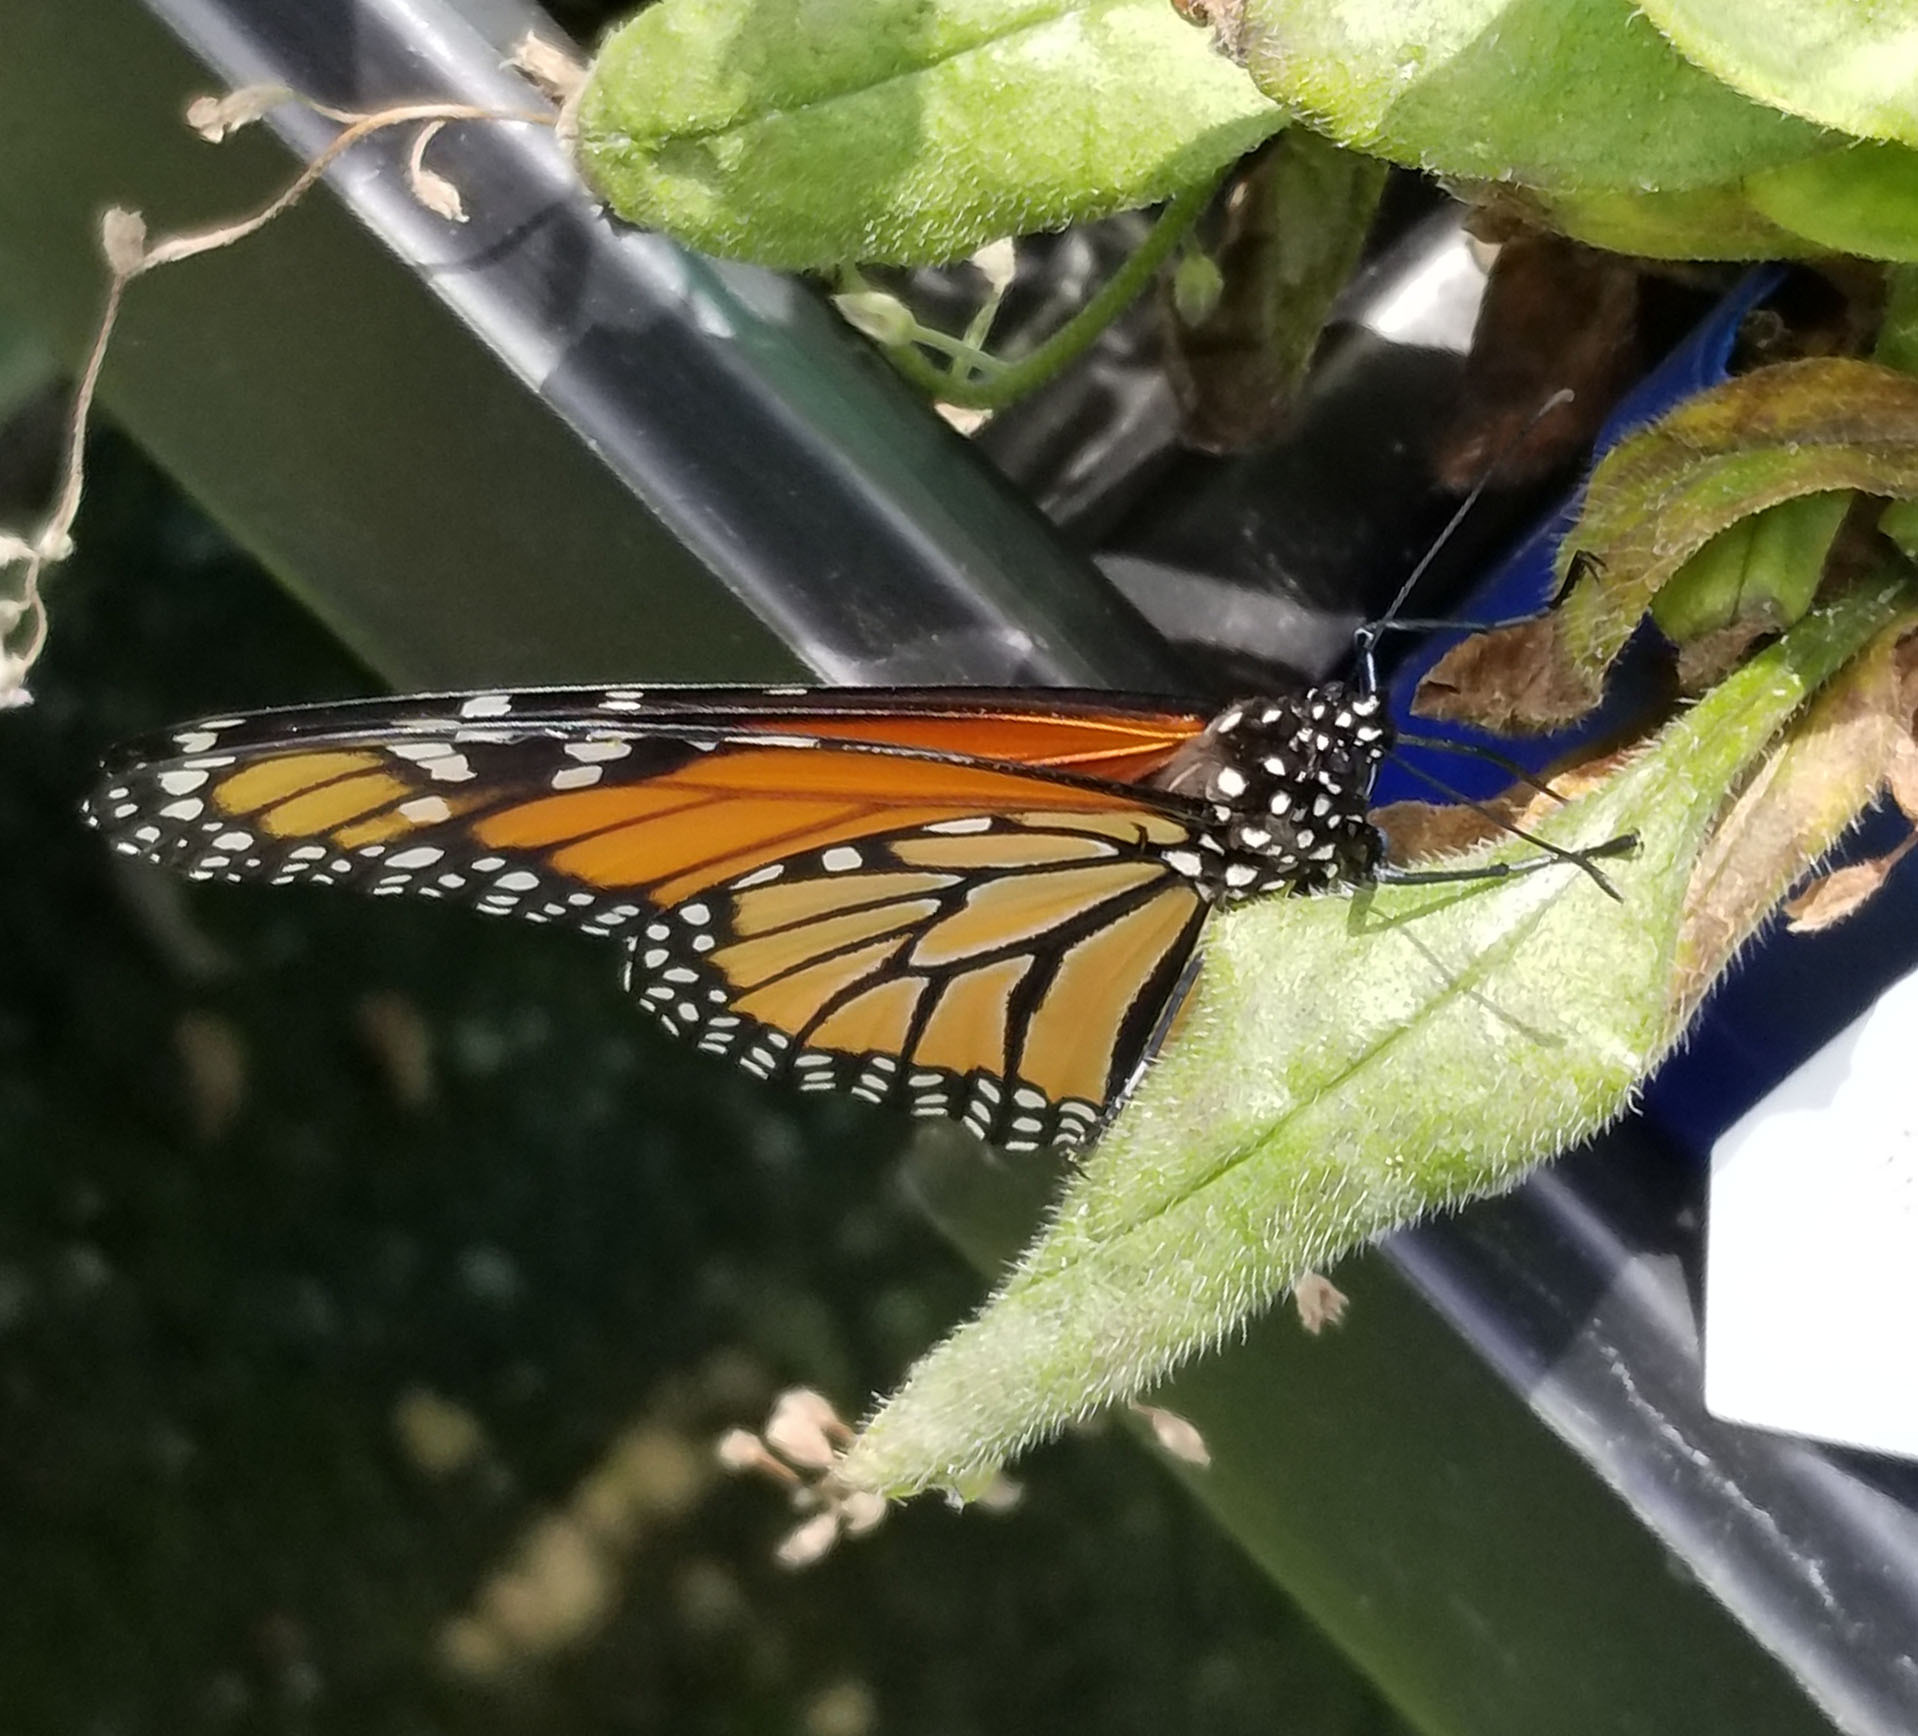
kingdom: Animalia
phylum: Arthropoda
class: Insecta
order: Lepidoptera
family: Nymphalidae
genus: Danaus
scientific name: Danaus plexippus
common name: Monarch
